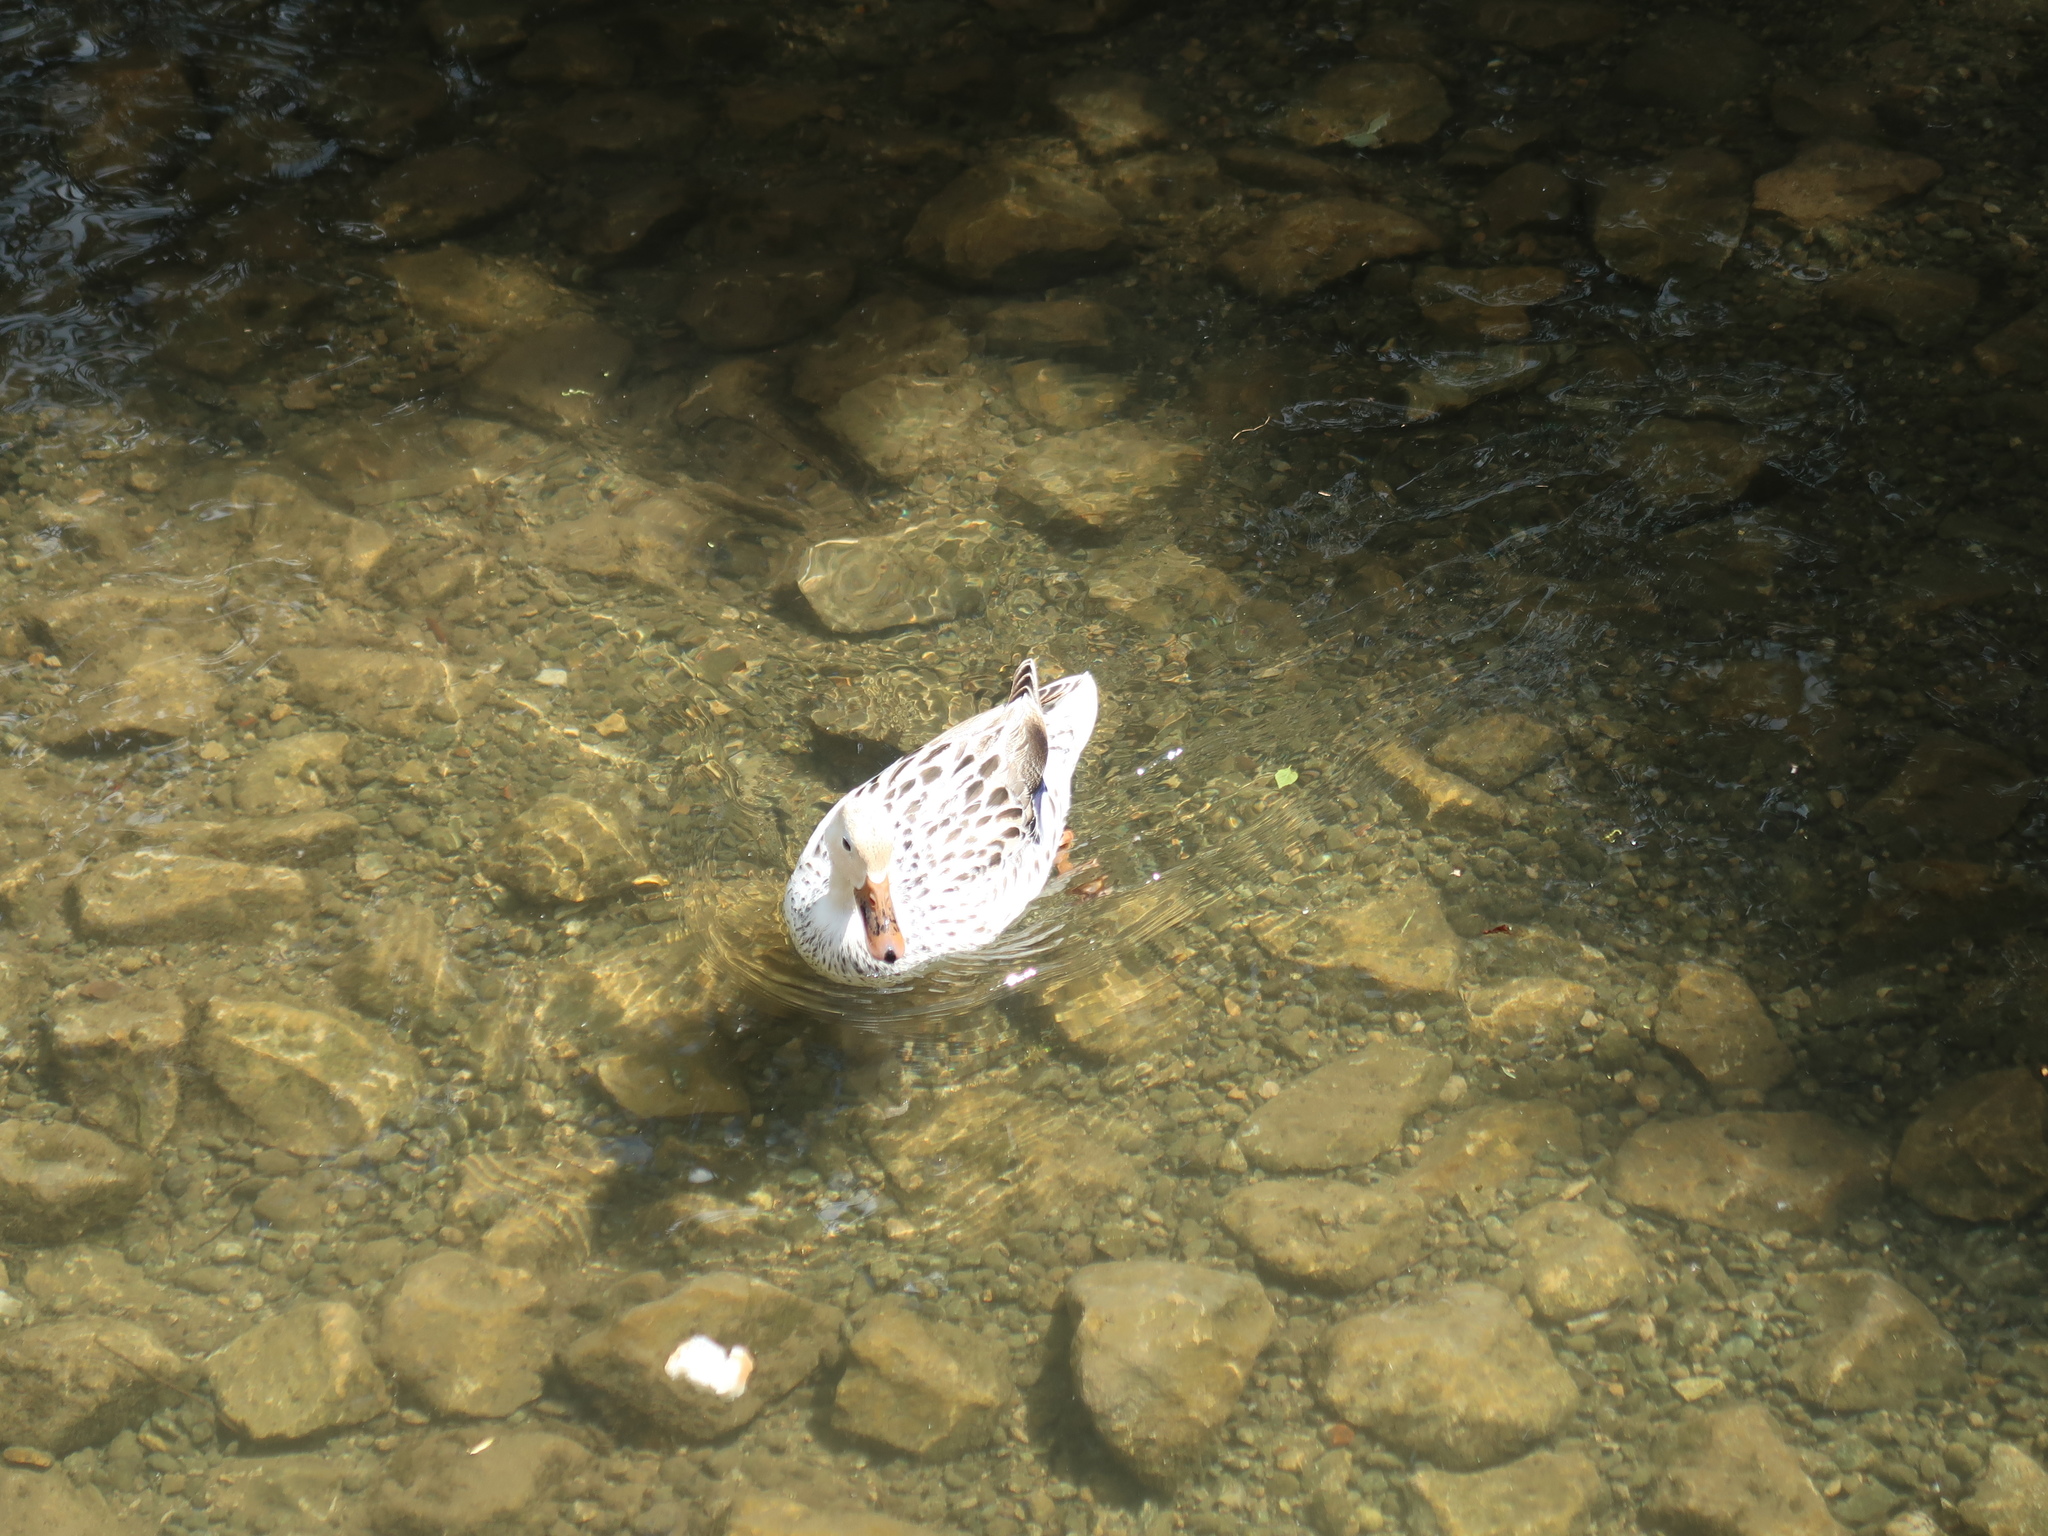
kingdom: Animalia
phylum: Chordata
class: Aves
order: Anseriformes
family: Anatidae
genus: Anas
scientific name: Anas platyrhynchos
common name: Mallard
